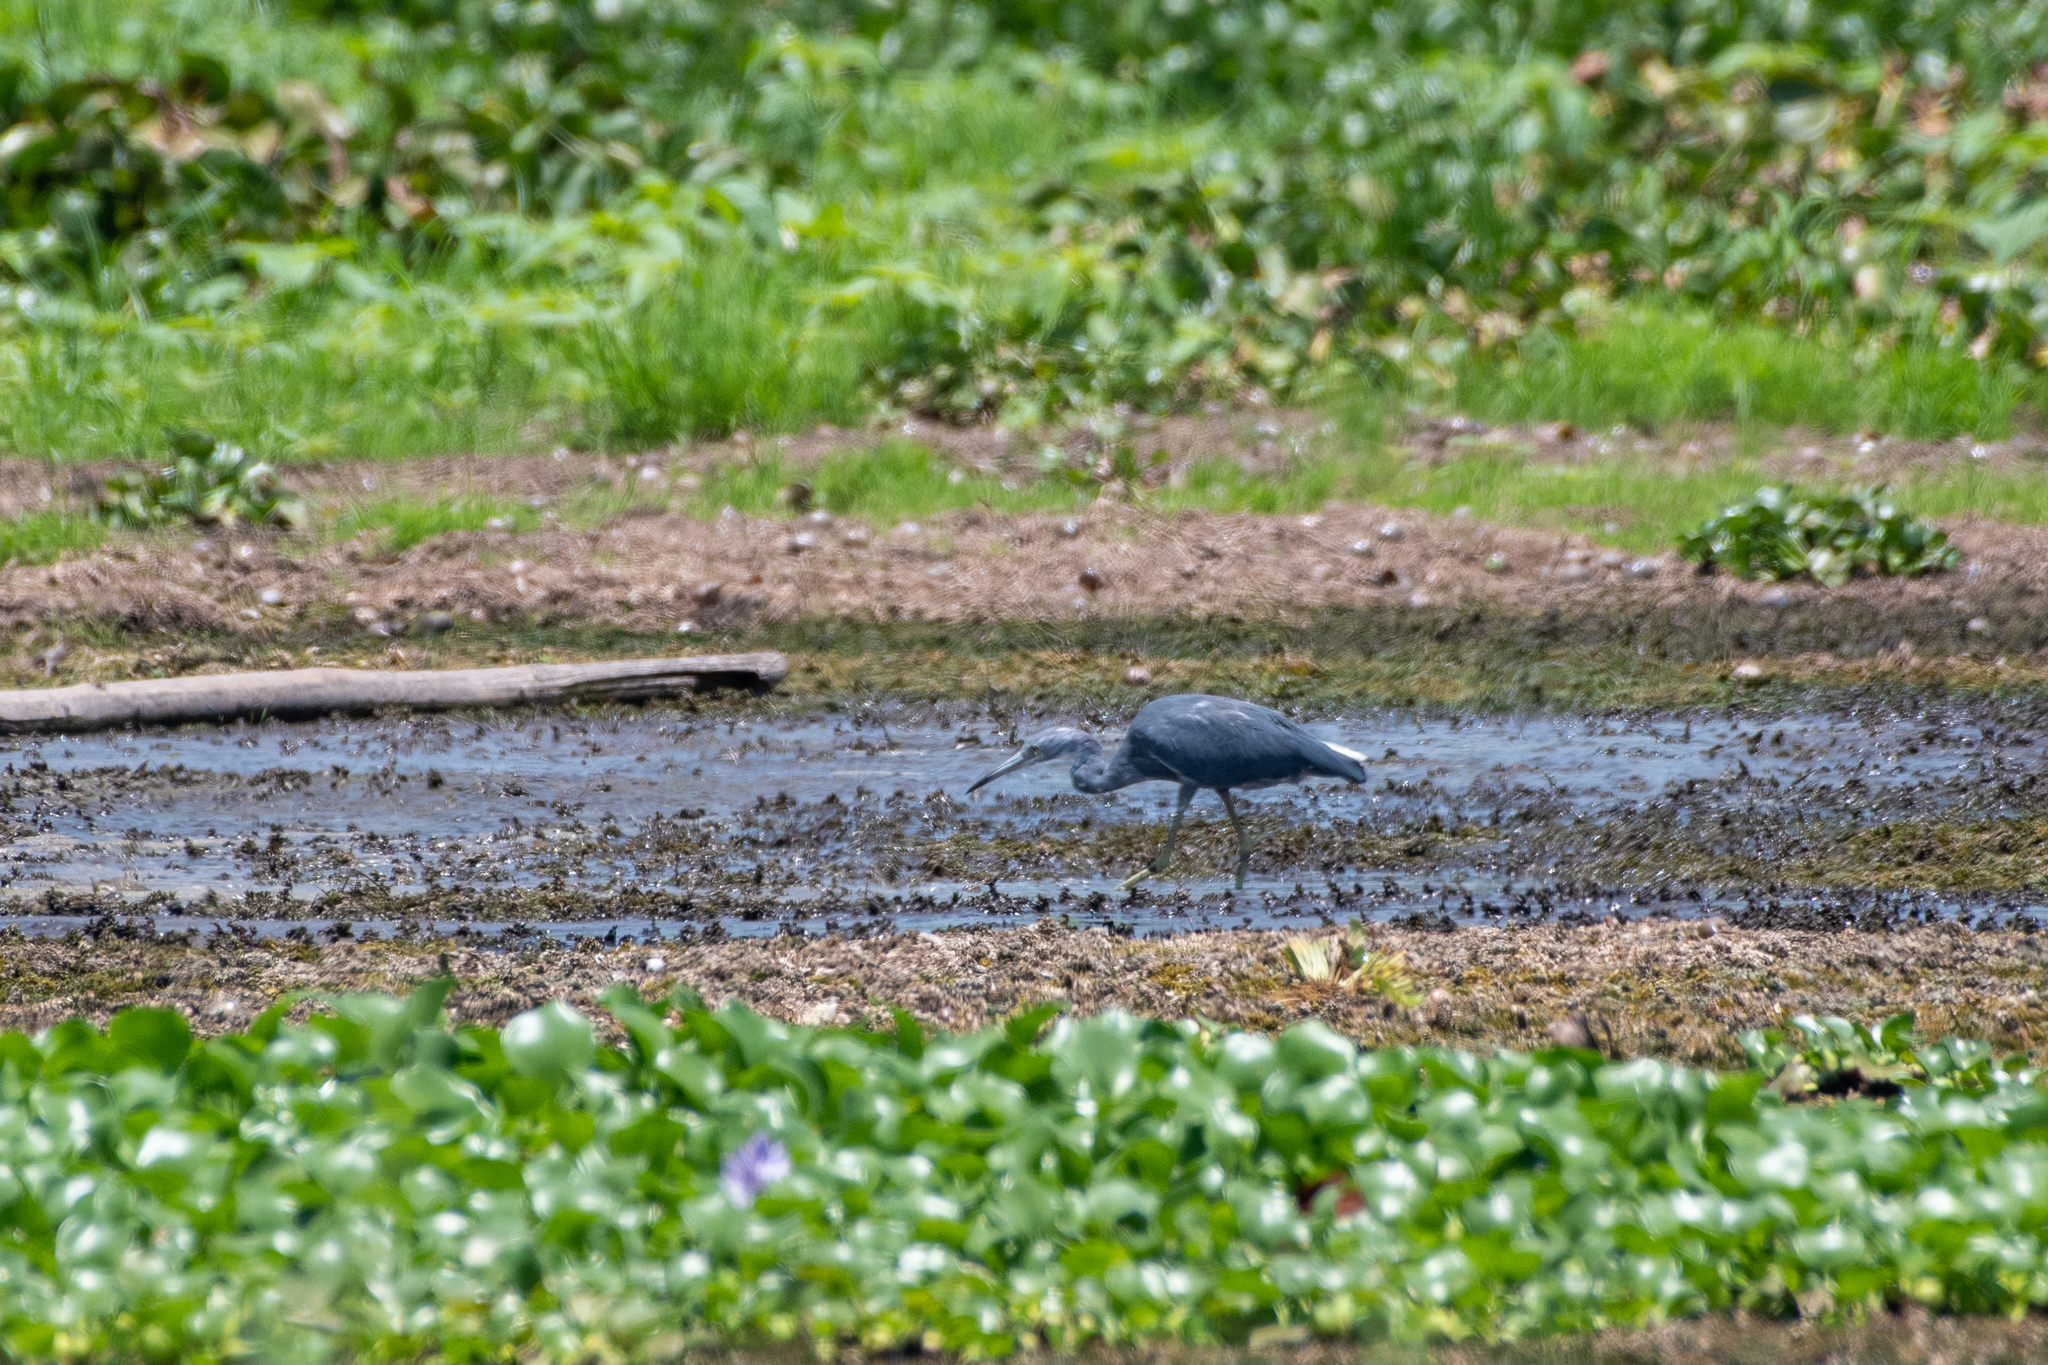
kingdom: Animalia
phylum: Chordata
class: Aves
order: Pelecaniformes
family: Ardeidae
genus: Egretta
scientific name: Egretta caerulea
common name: Little blue heron
